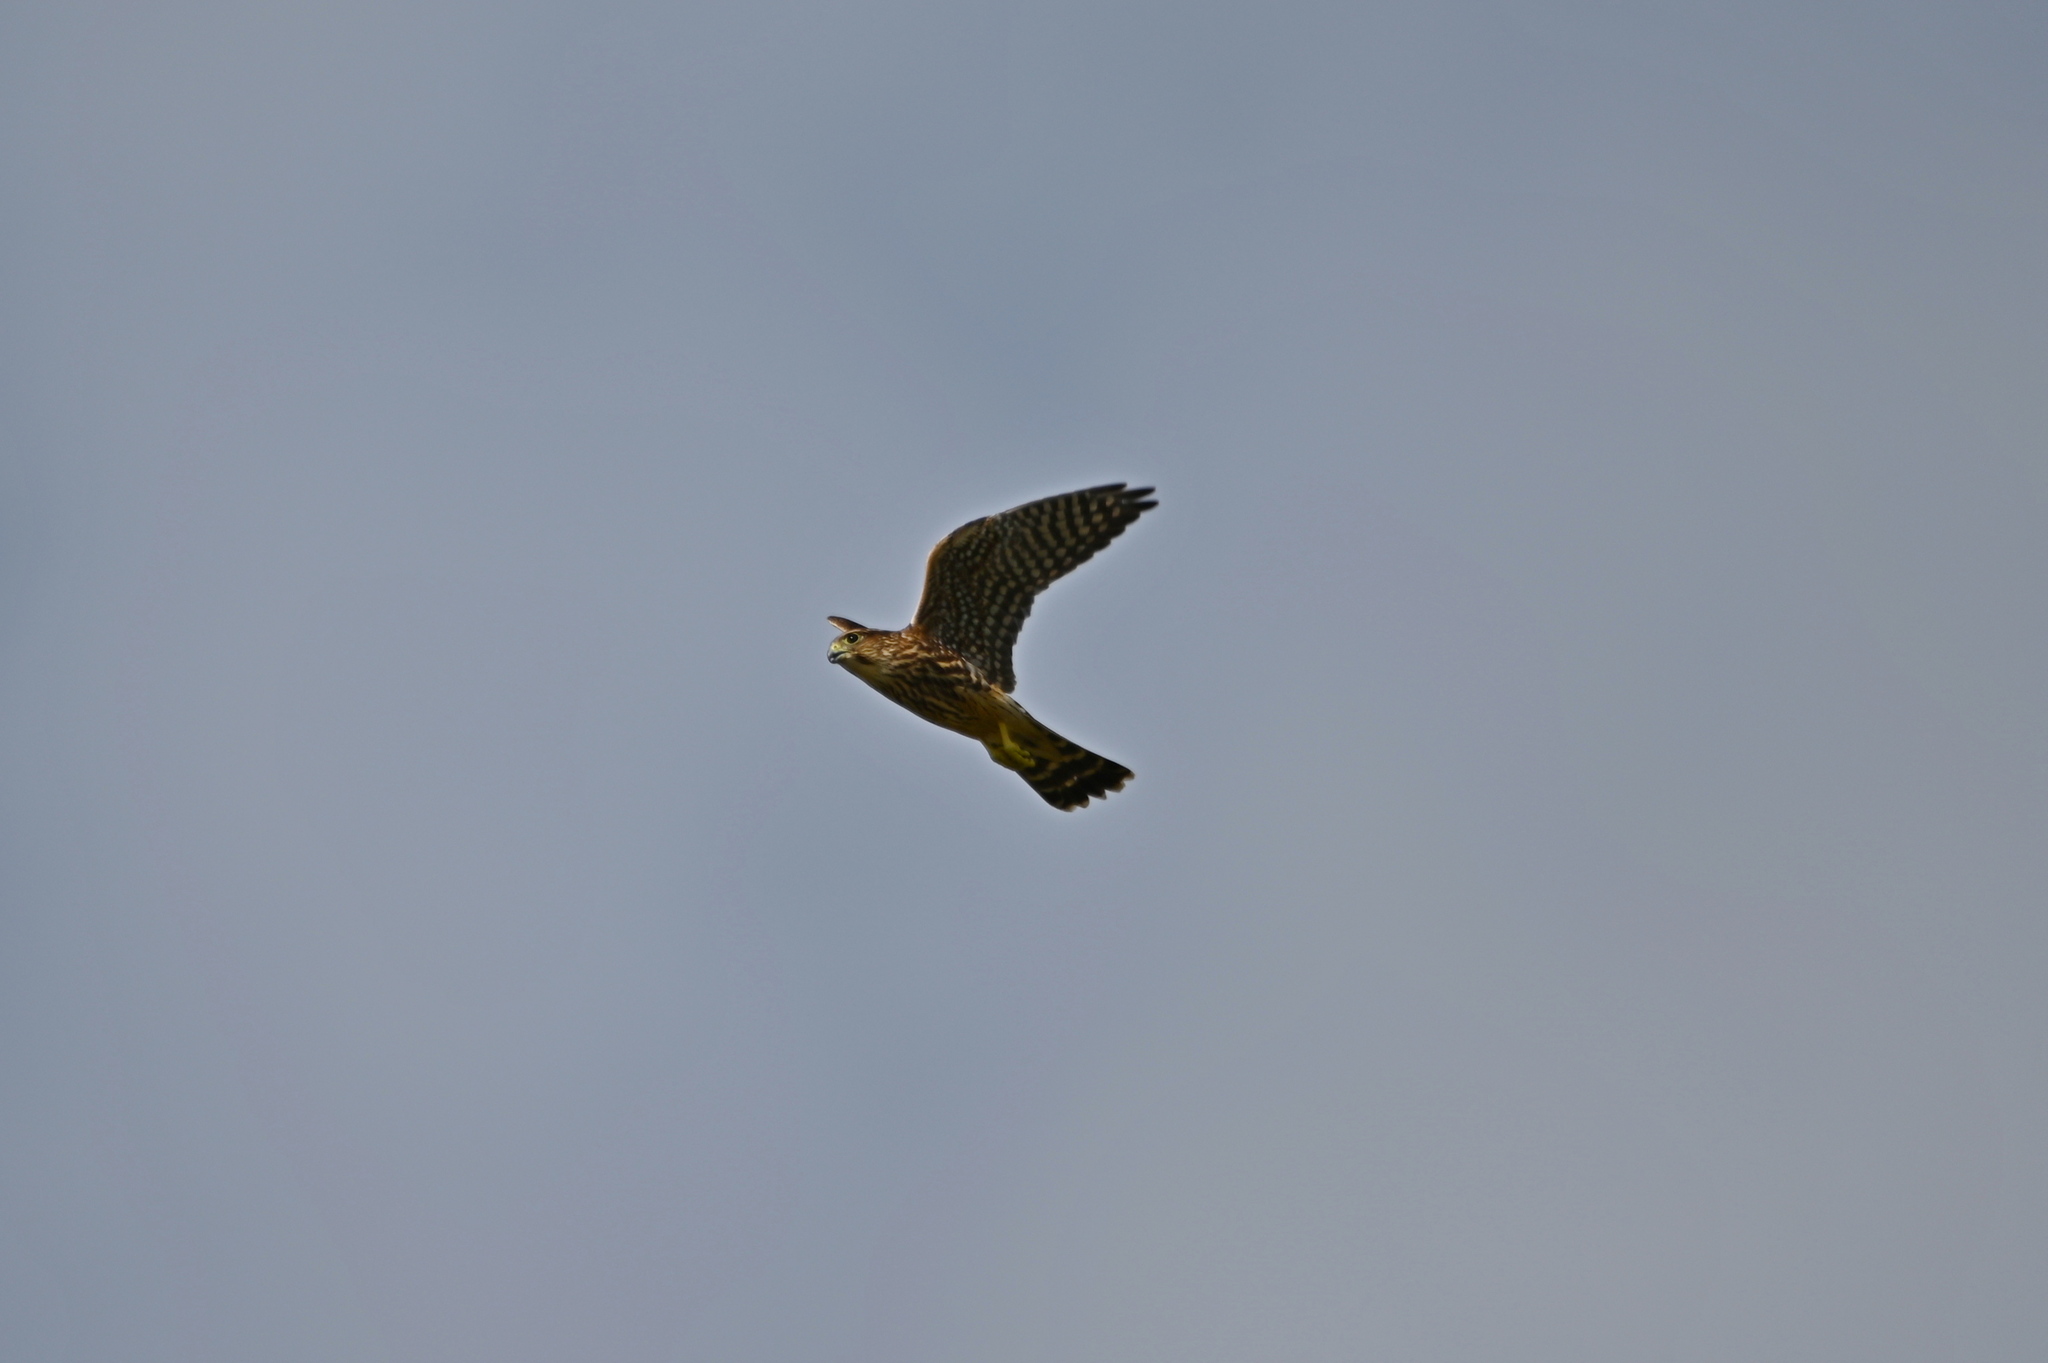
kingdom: Animalia
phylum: Chordata
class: Aves
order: Falconiformes
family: Falconidae
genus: Falco
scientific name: Falco columbarius
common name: Merlin
